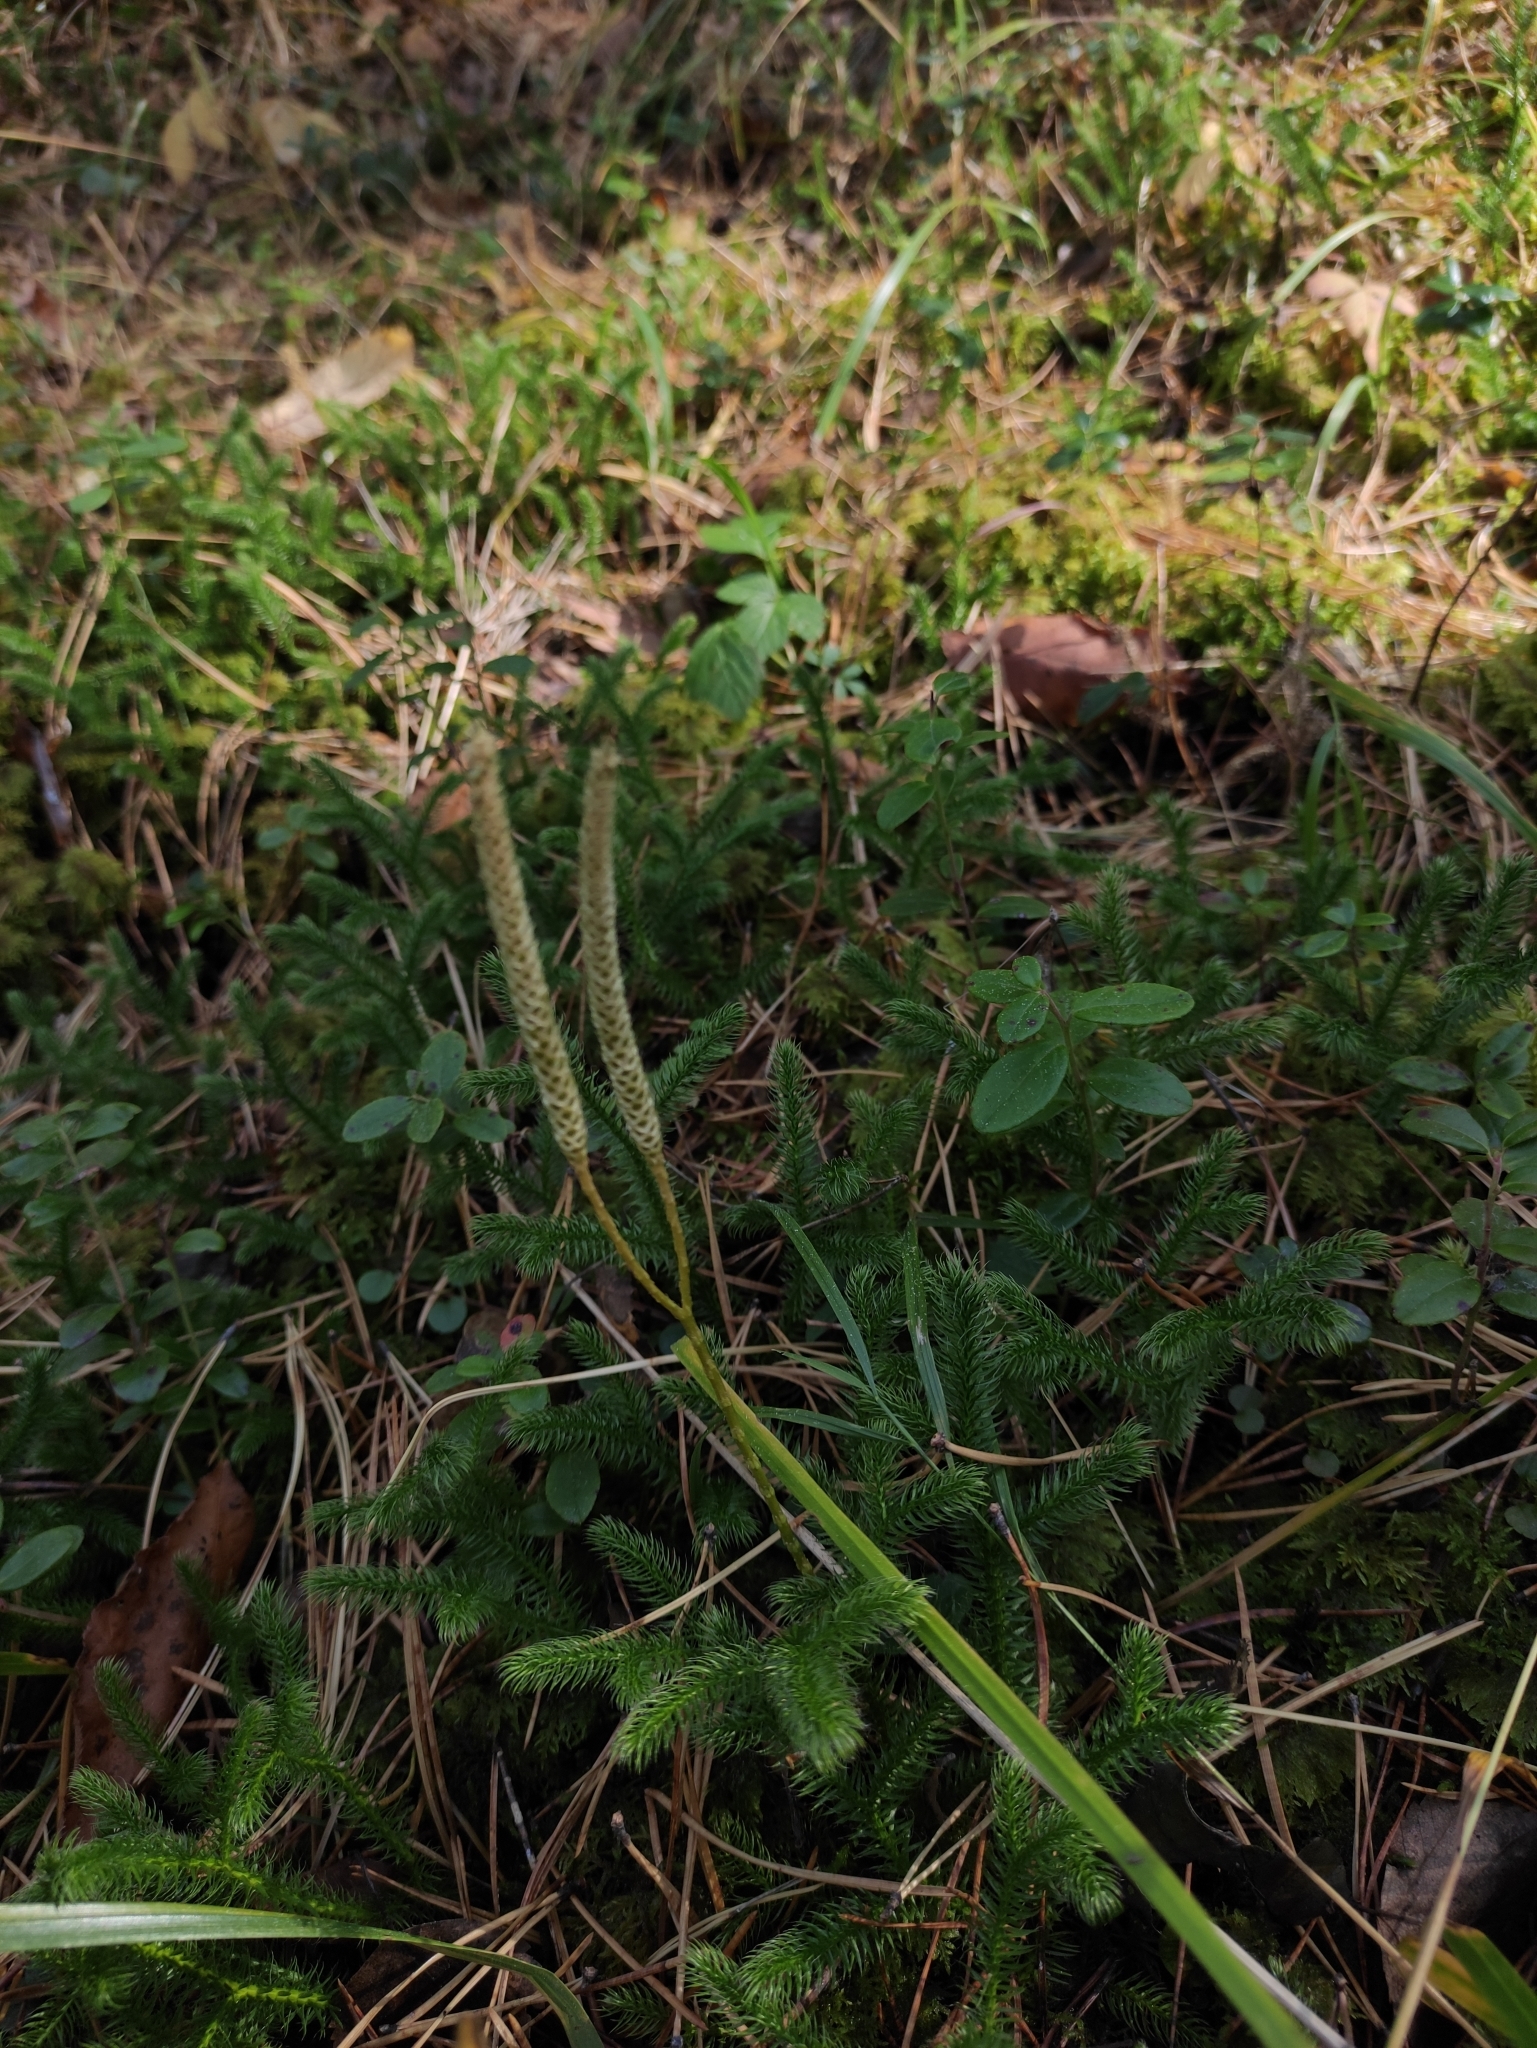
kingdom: Plantae
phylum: Tracheophyta
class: Lycopodiopsida
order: Lycopodiales
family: Lycopodiaceae
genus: Lycopodium
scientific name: Lycopodium clavatum
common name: Stag's-horn clubmoss
